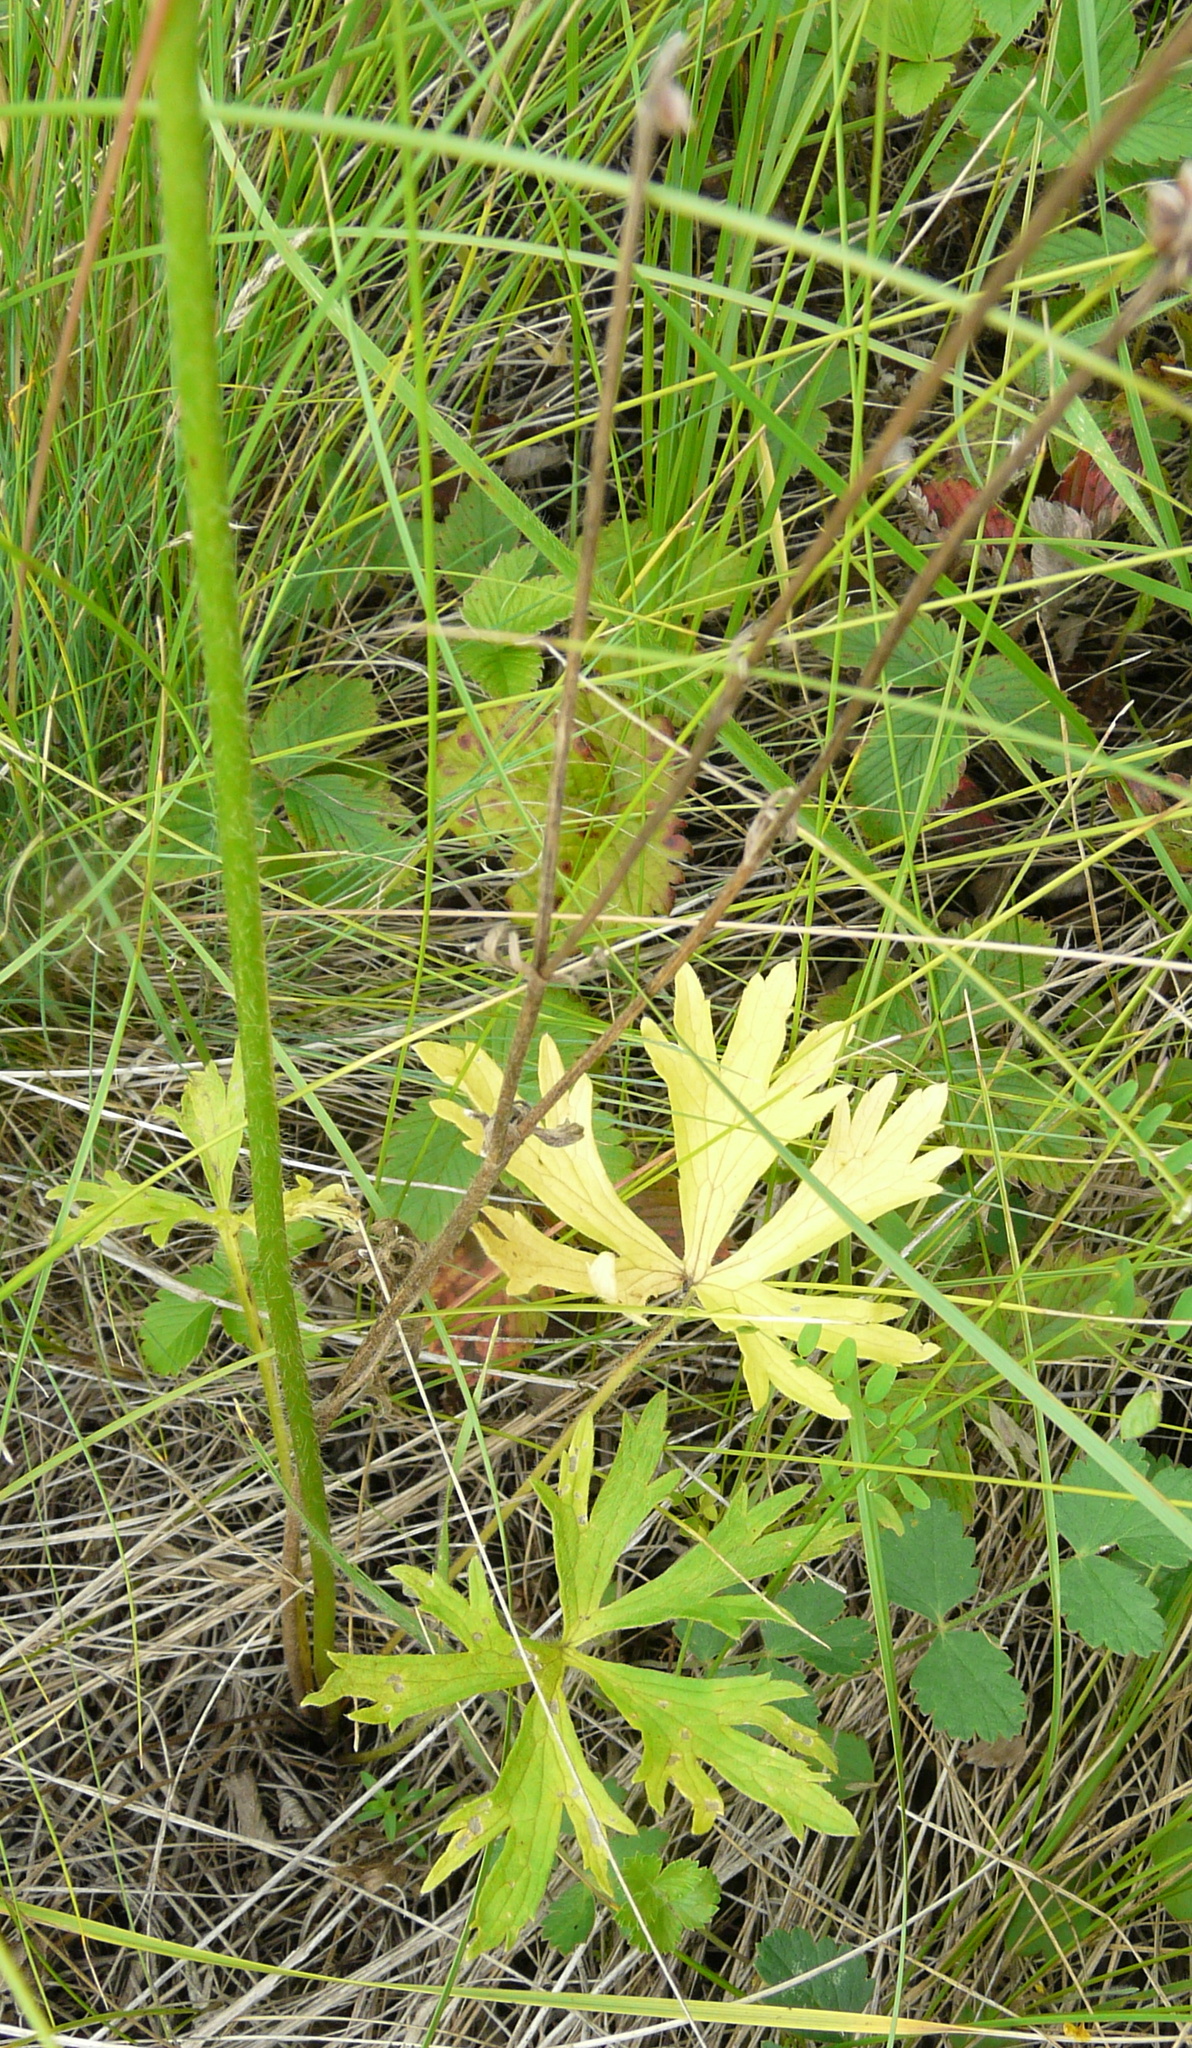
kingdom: Plantae
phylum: Tracheophyta
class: Magnoliopsida
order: Ranunculales
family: Ranunculaceae
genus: Ranunculus
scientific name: Ranunculus polyanthemos
